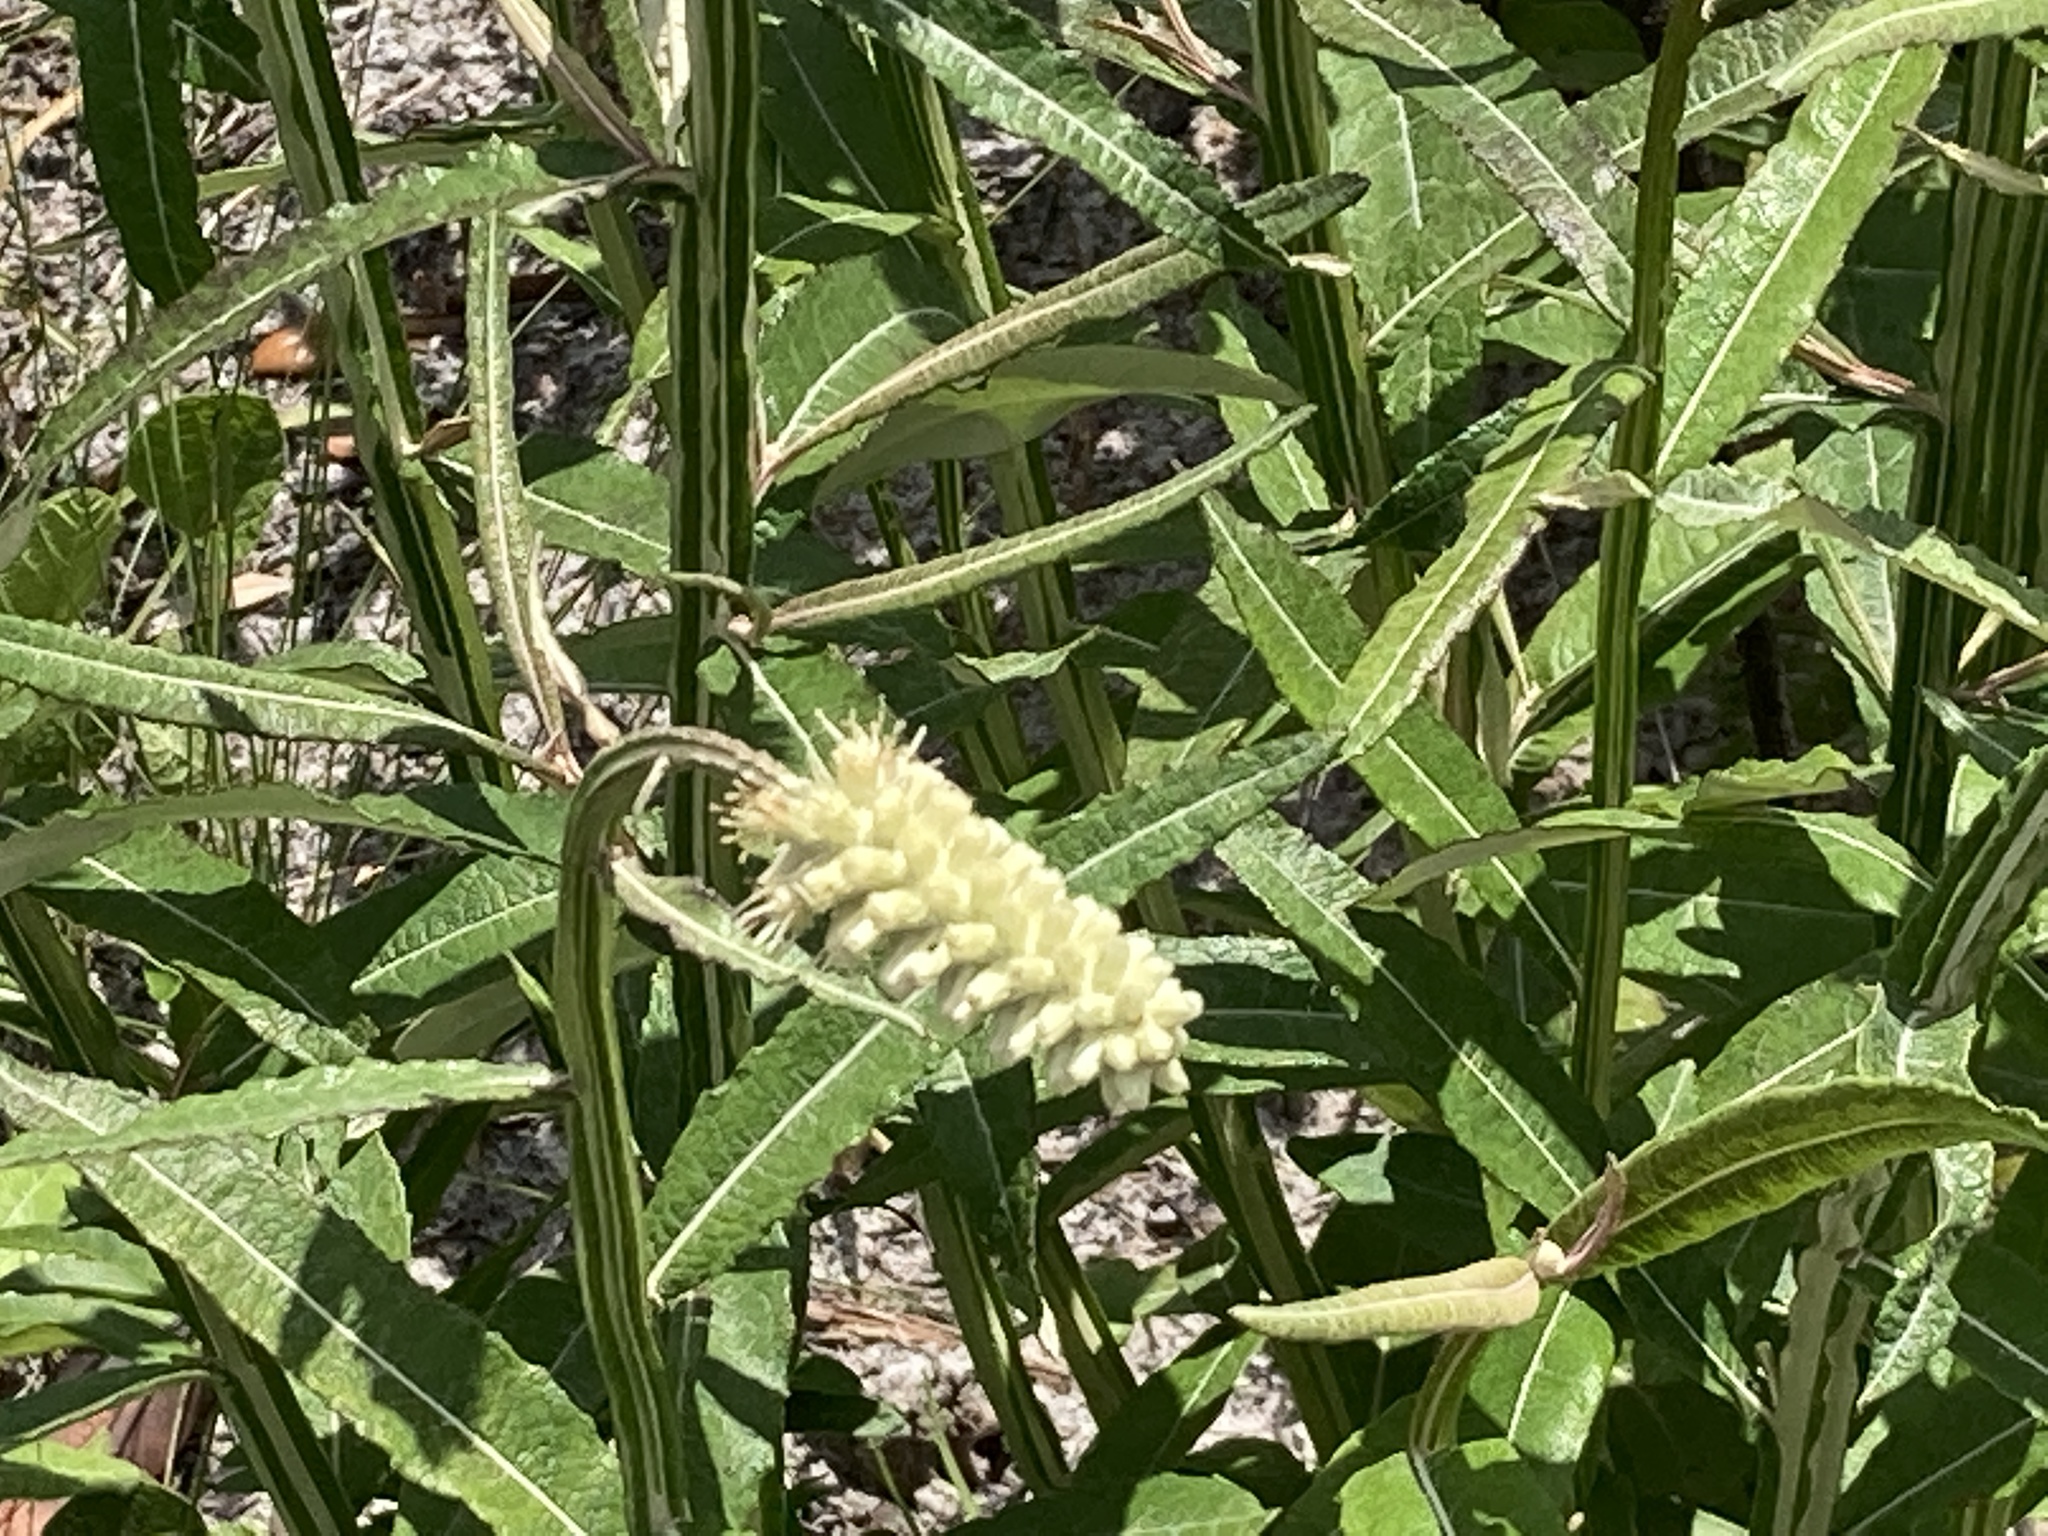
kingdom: Plantae
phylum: Tracheophyta
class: Magnoliopsida
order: Asterales
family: Asteraceae
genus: Pterocaulon
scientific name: Pterocaulon pycnostachyum
